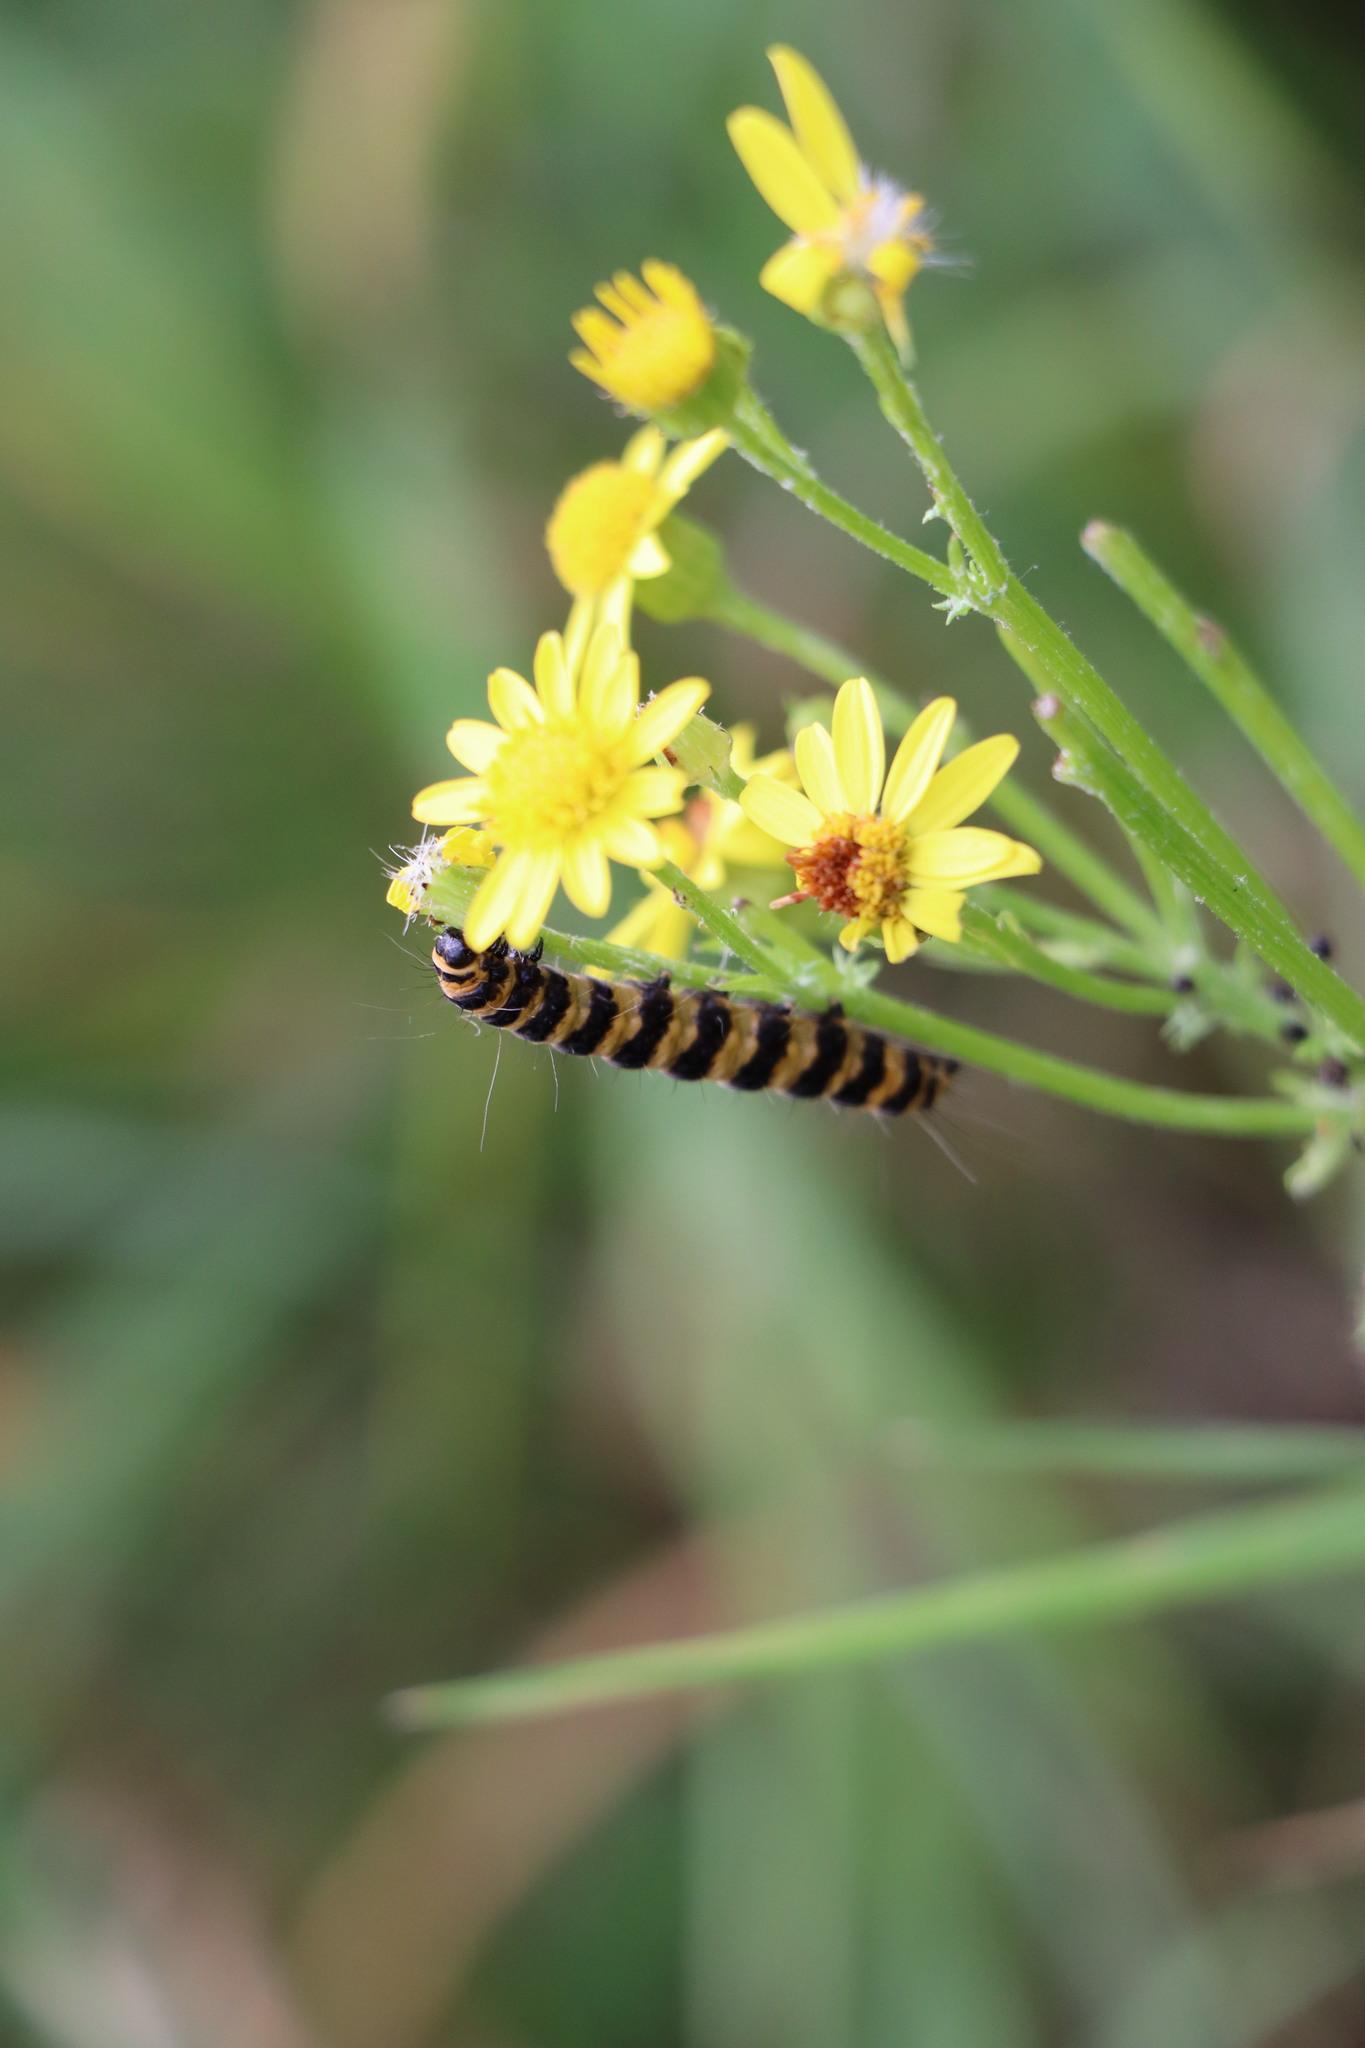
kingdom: Animalia
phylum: Arthropoda
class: Insecta
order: Lepidoptera
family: Erebidae
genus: Tyria
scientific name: Tyria jacobaeae
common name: Cinnabar
